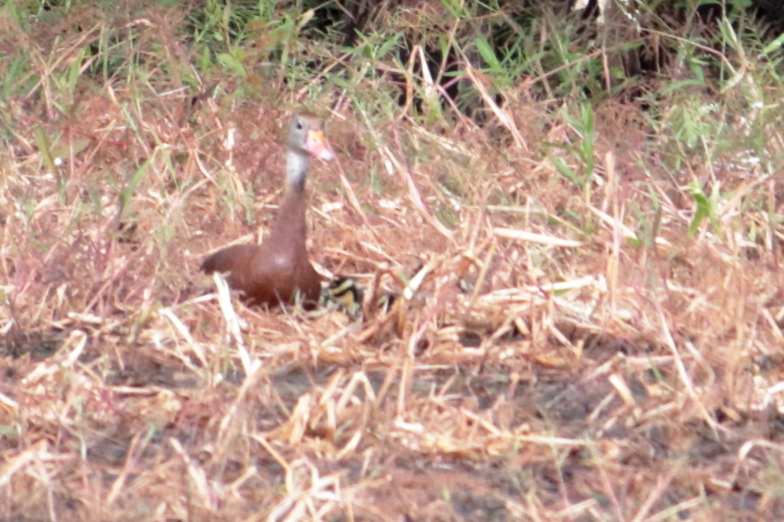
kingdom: Animalia
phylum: Chordata
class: Aves
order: Anseriformes
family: Anatidae
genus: Dendrocygna
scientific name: Dendrocygna autumnalis
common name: Black-bellied whistling duck
